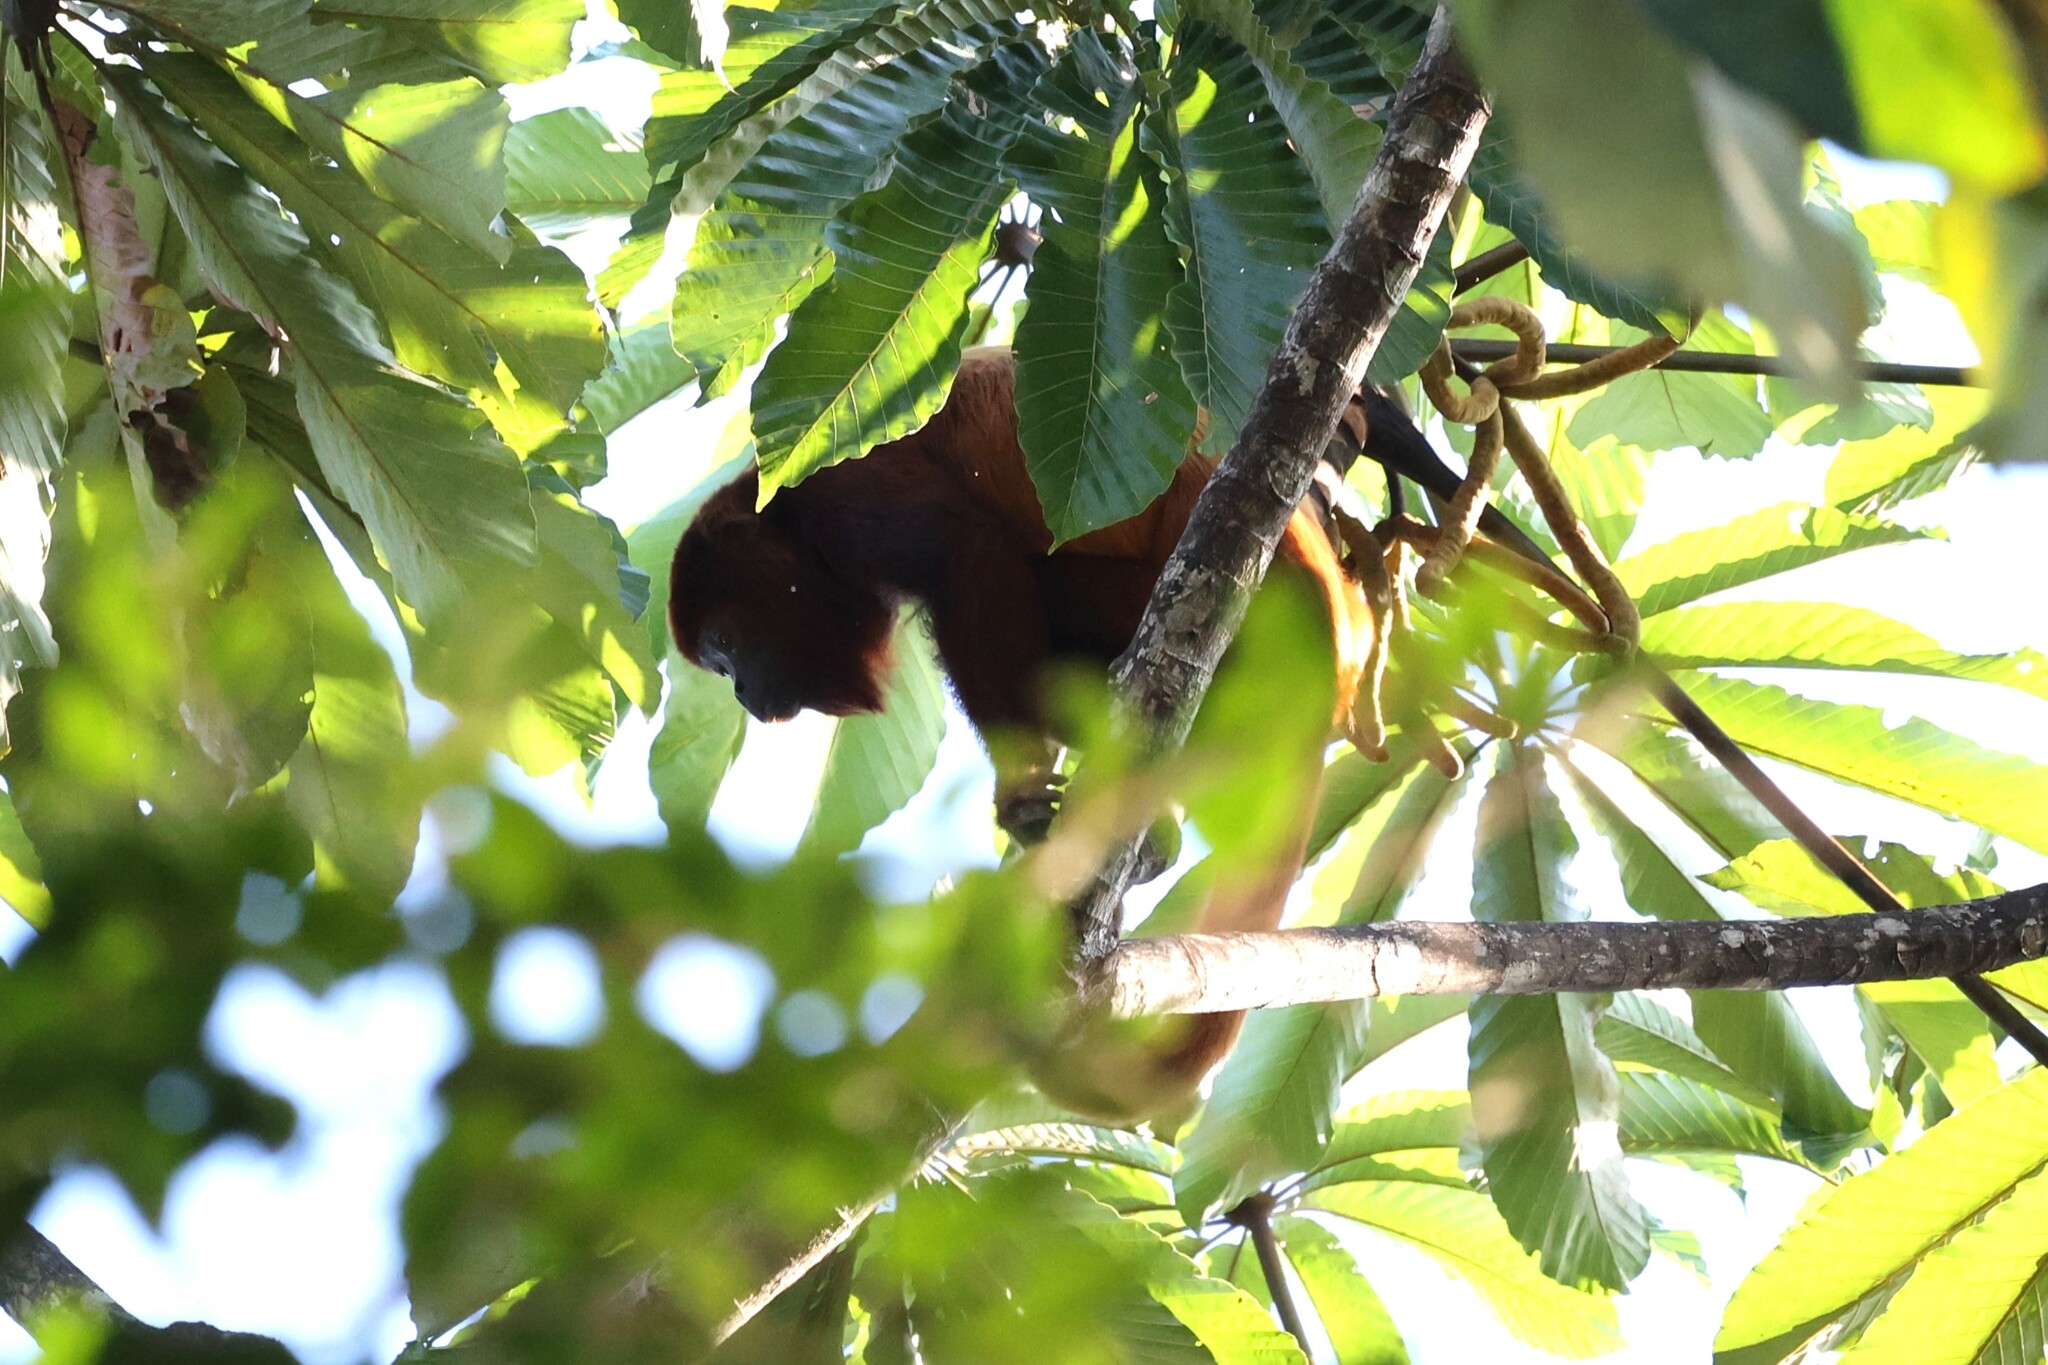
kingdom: Animalia
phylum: Chordata
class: Mammalia
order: Primates
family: Atelidae
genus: Alouatta
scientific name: Alouatta seniculus
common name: Venezuelan red howler
